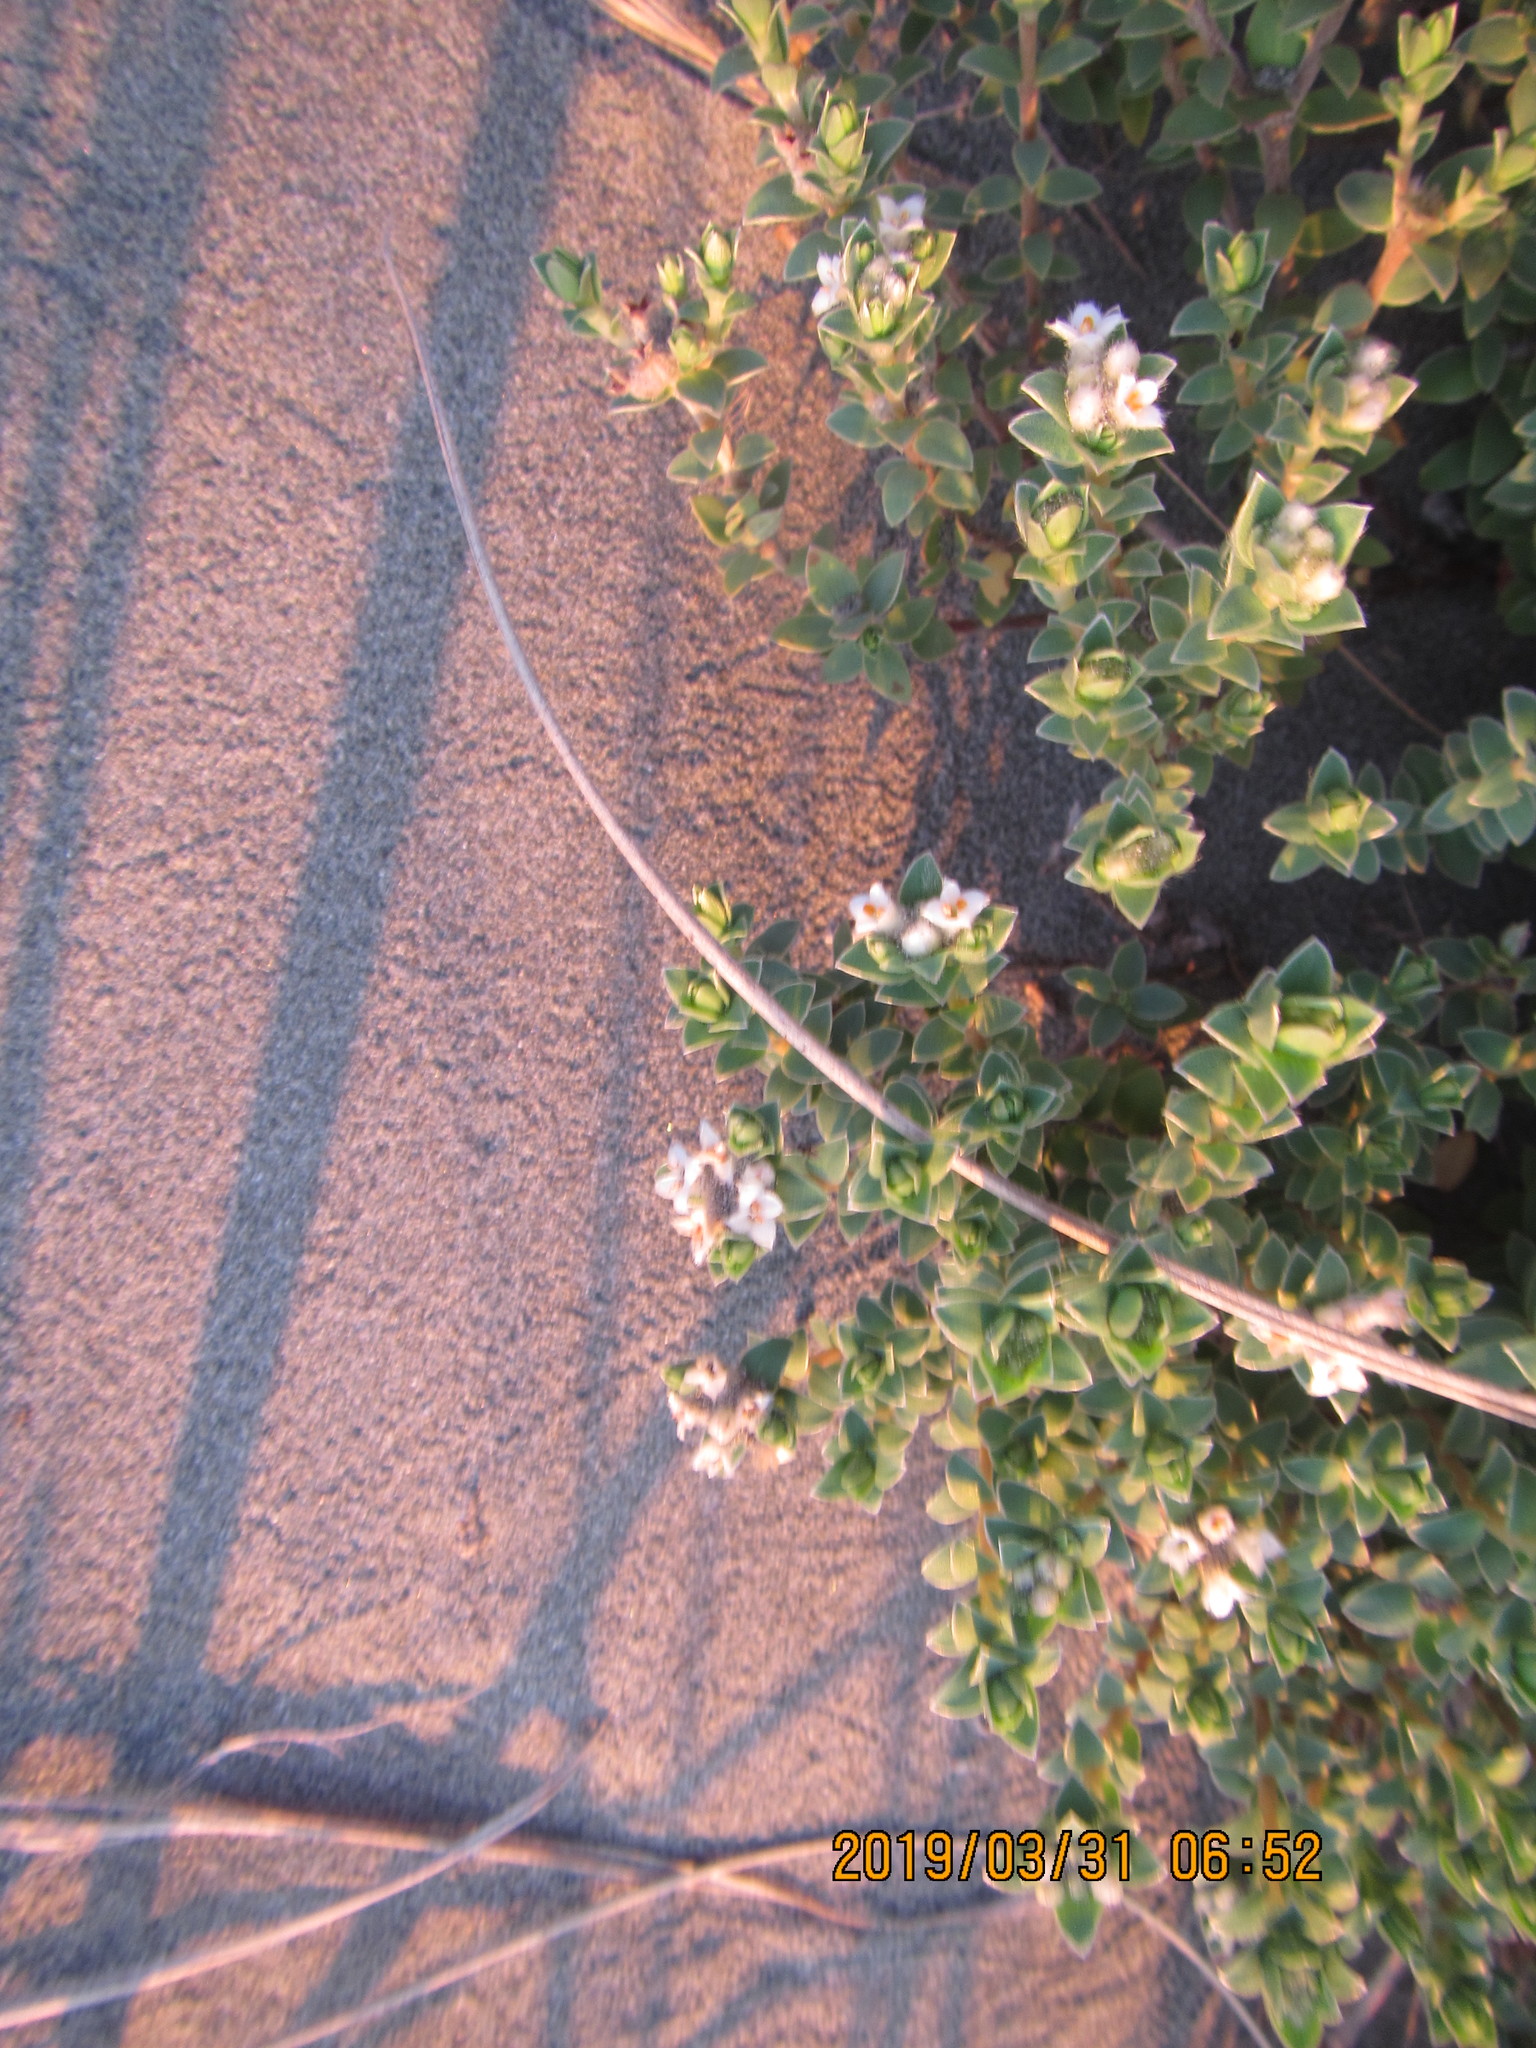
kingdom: Plantae
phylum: Tracheophyta
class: Magnoliopsida
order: Malvales
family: Thymelaeaceae
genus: Pimelea
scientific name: Pimelea villosa
